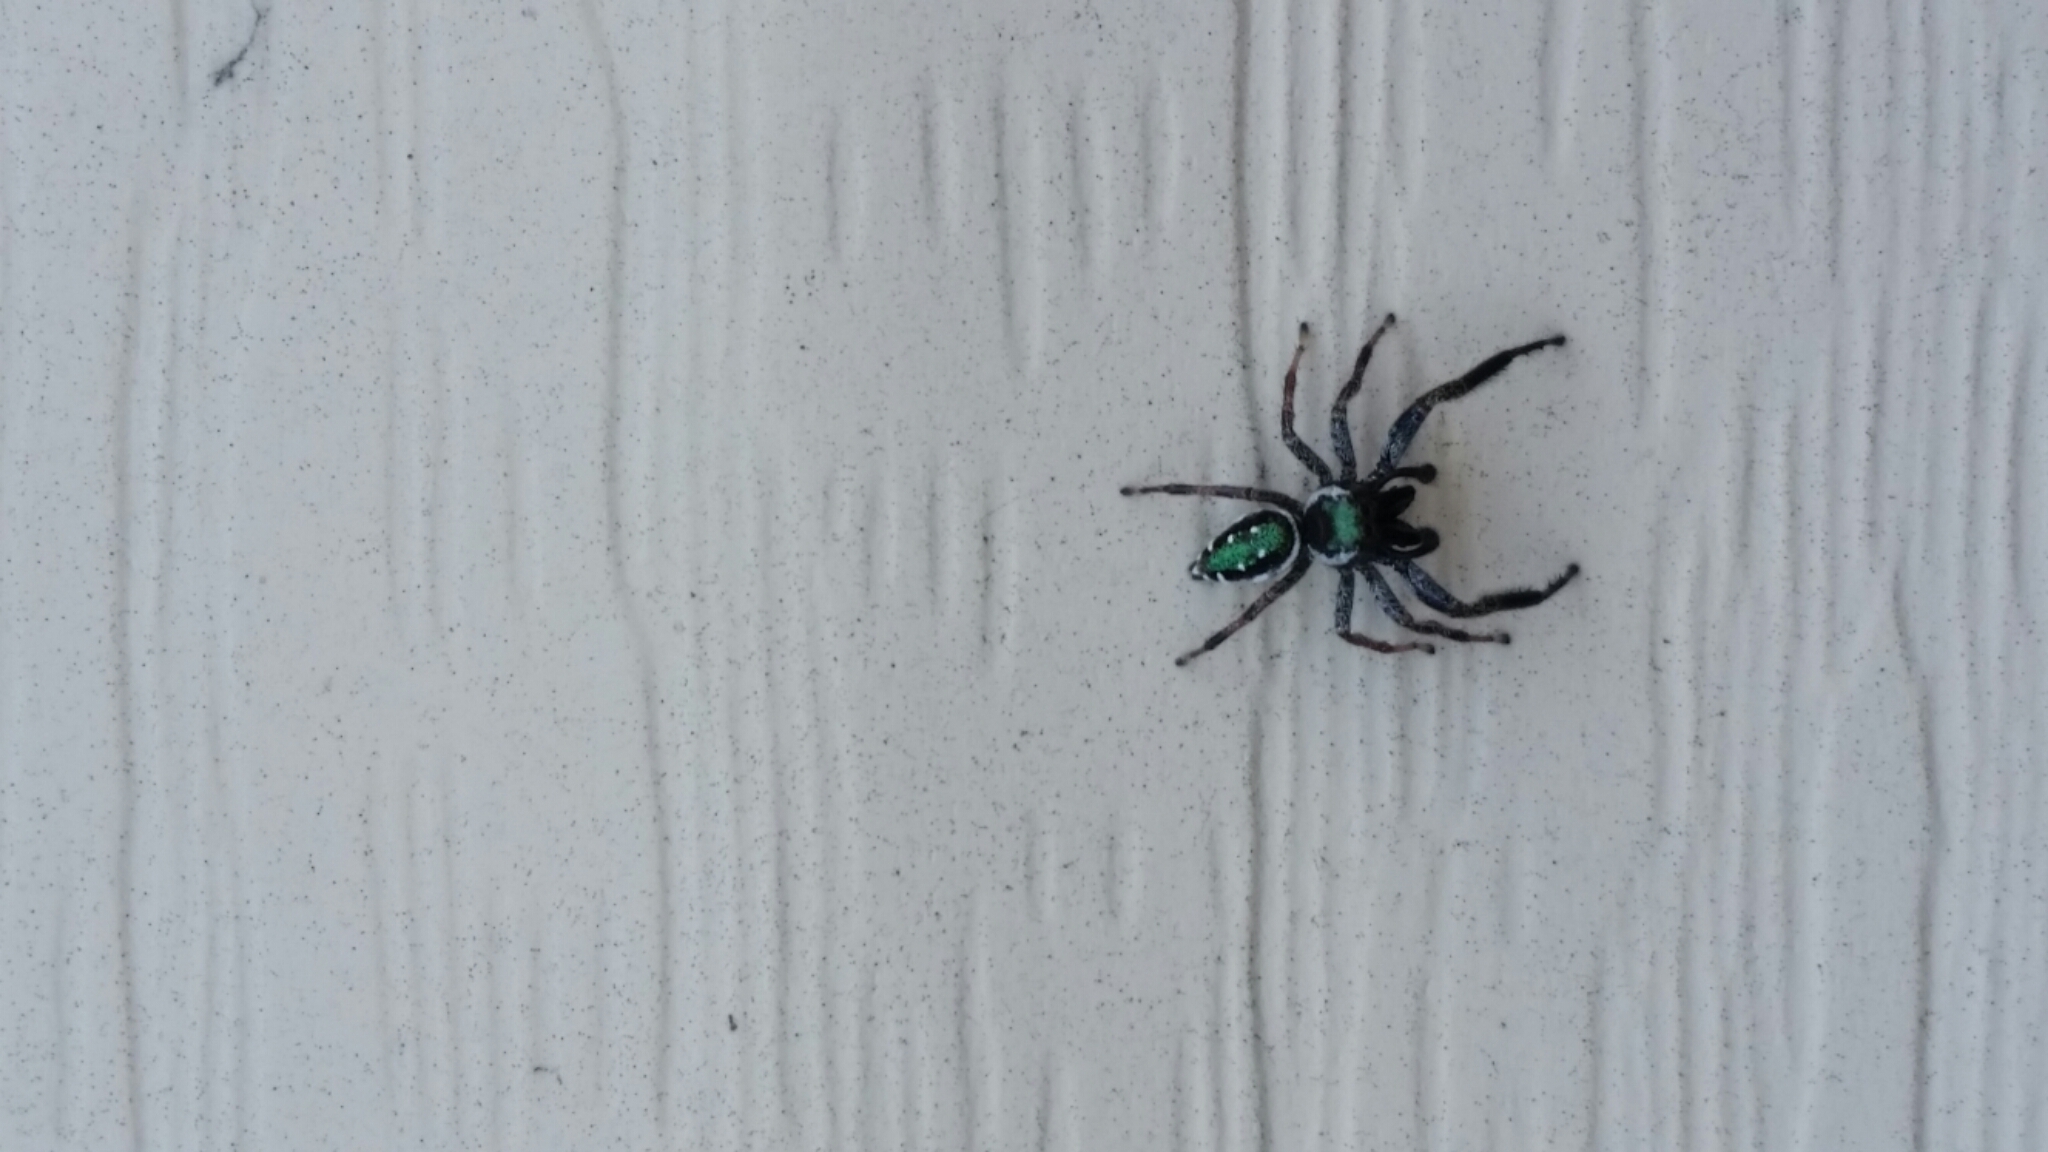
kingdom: Animalia
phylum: Arthropoda
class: Arachnida
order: Araneae
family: Salticidae
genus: Paraphidippus
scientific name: Paraphidippus aurantius
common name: Jumping spiders
